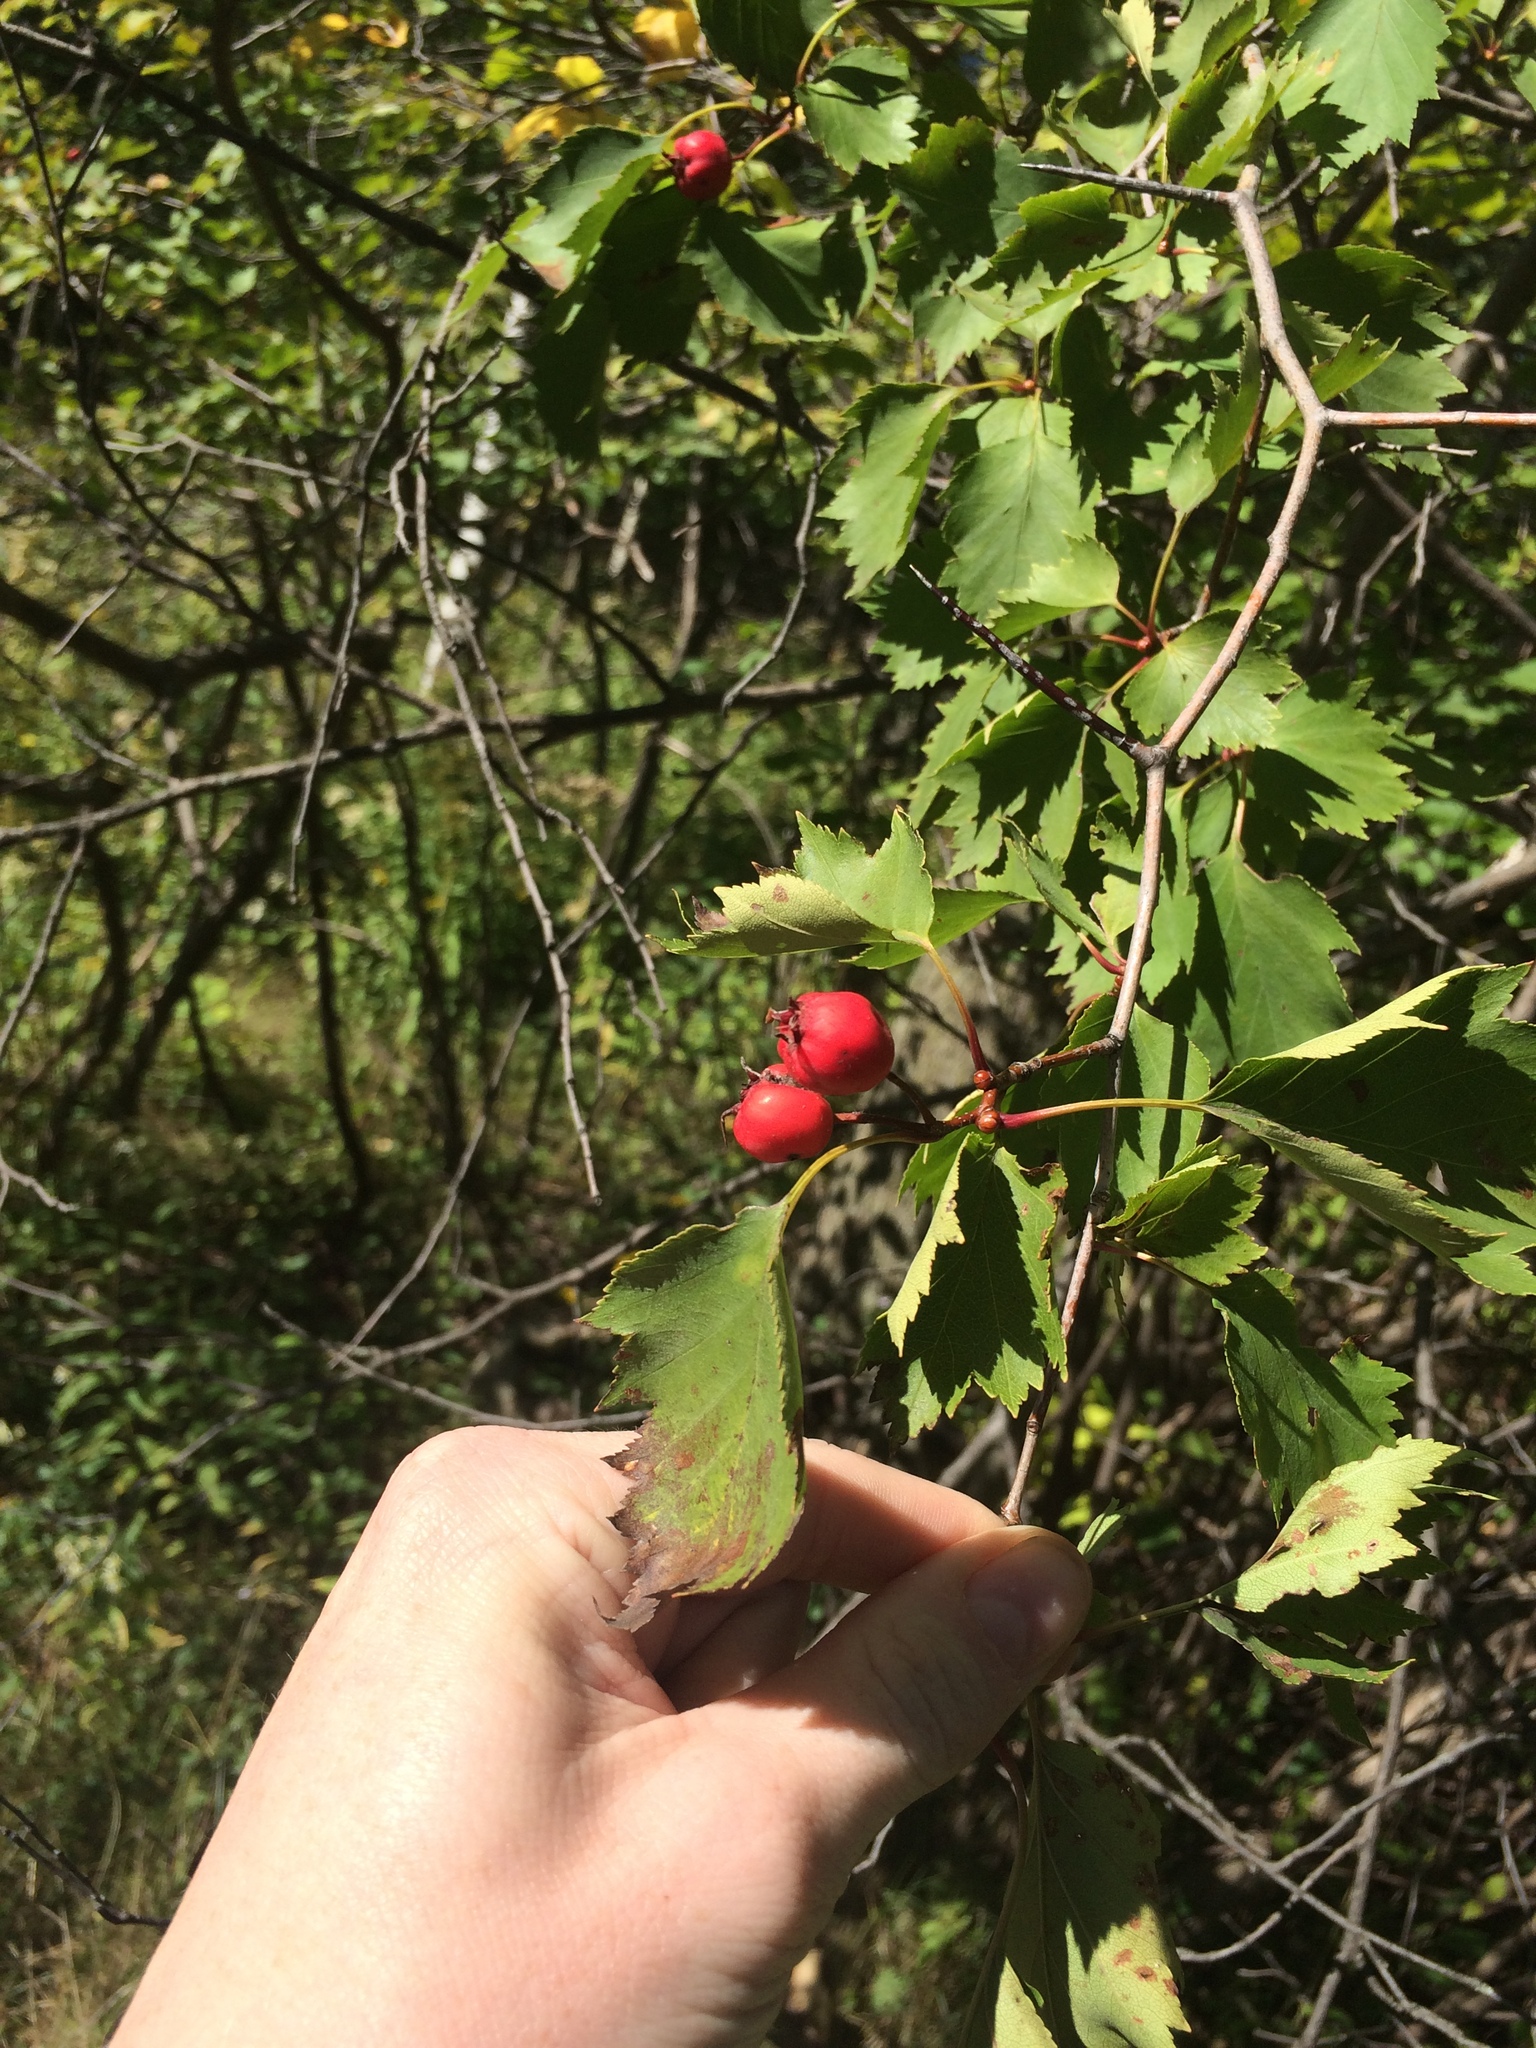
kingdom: Plantae
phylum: Tracheophyta
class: Magnoliopsida
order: Rosales
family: Rosaceae
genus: Crataegus
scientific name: Crataegus flabellata
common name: Bosc's hawthorn
